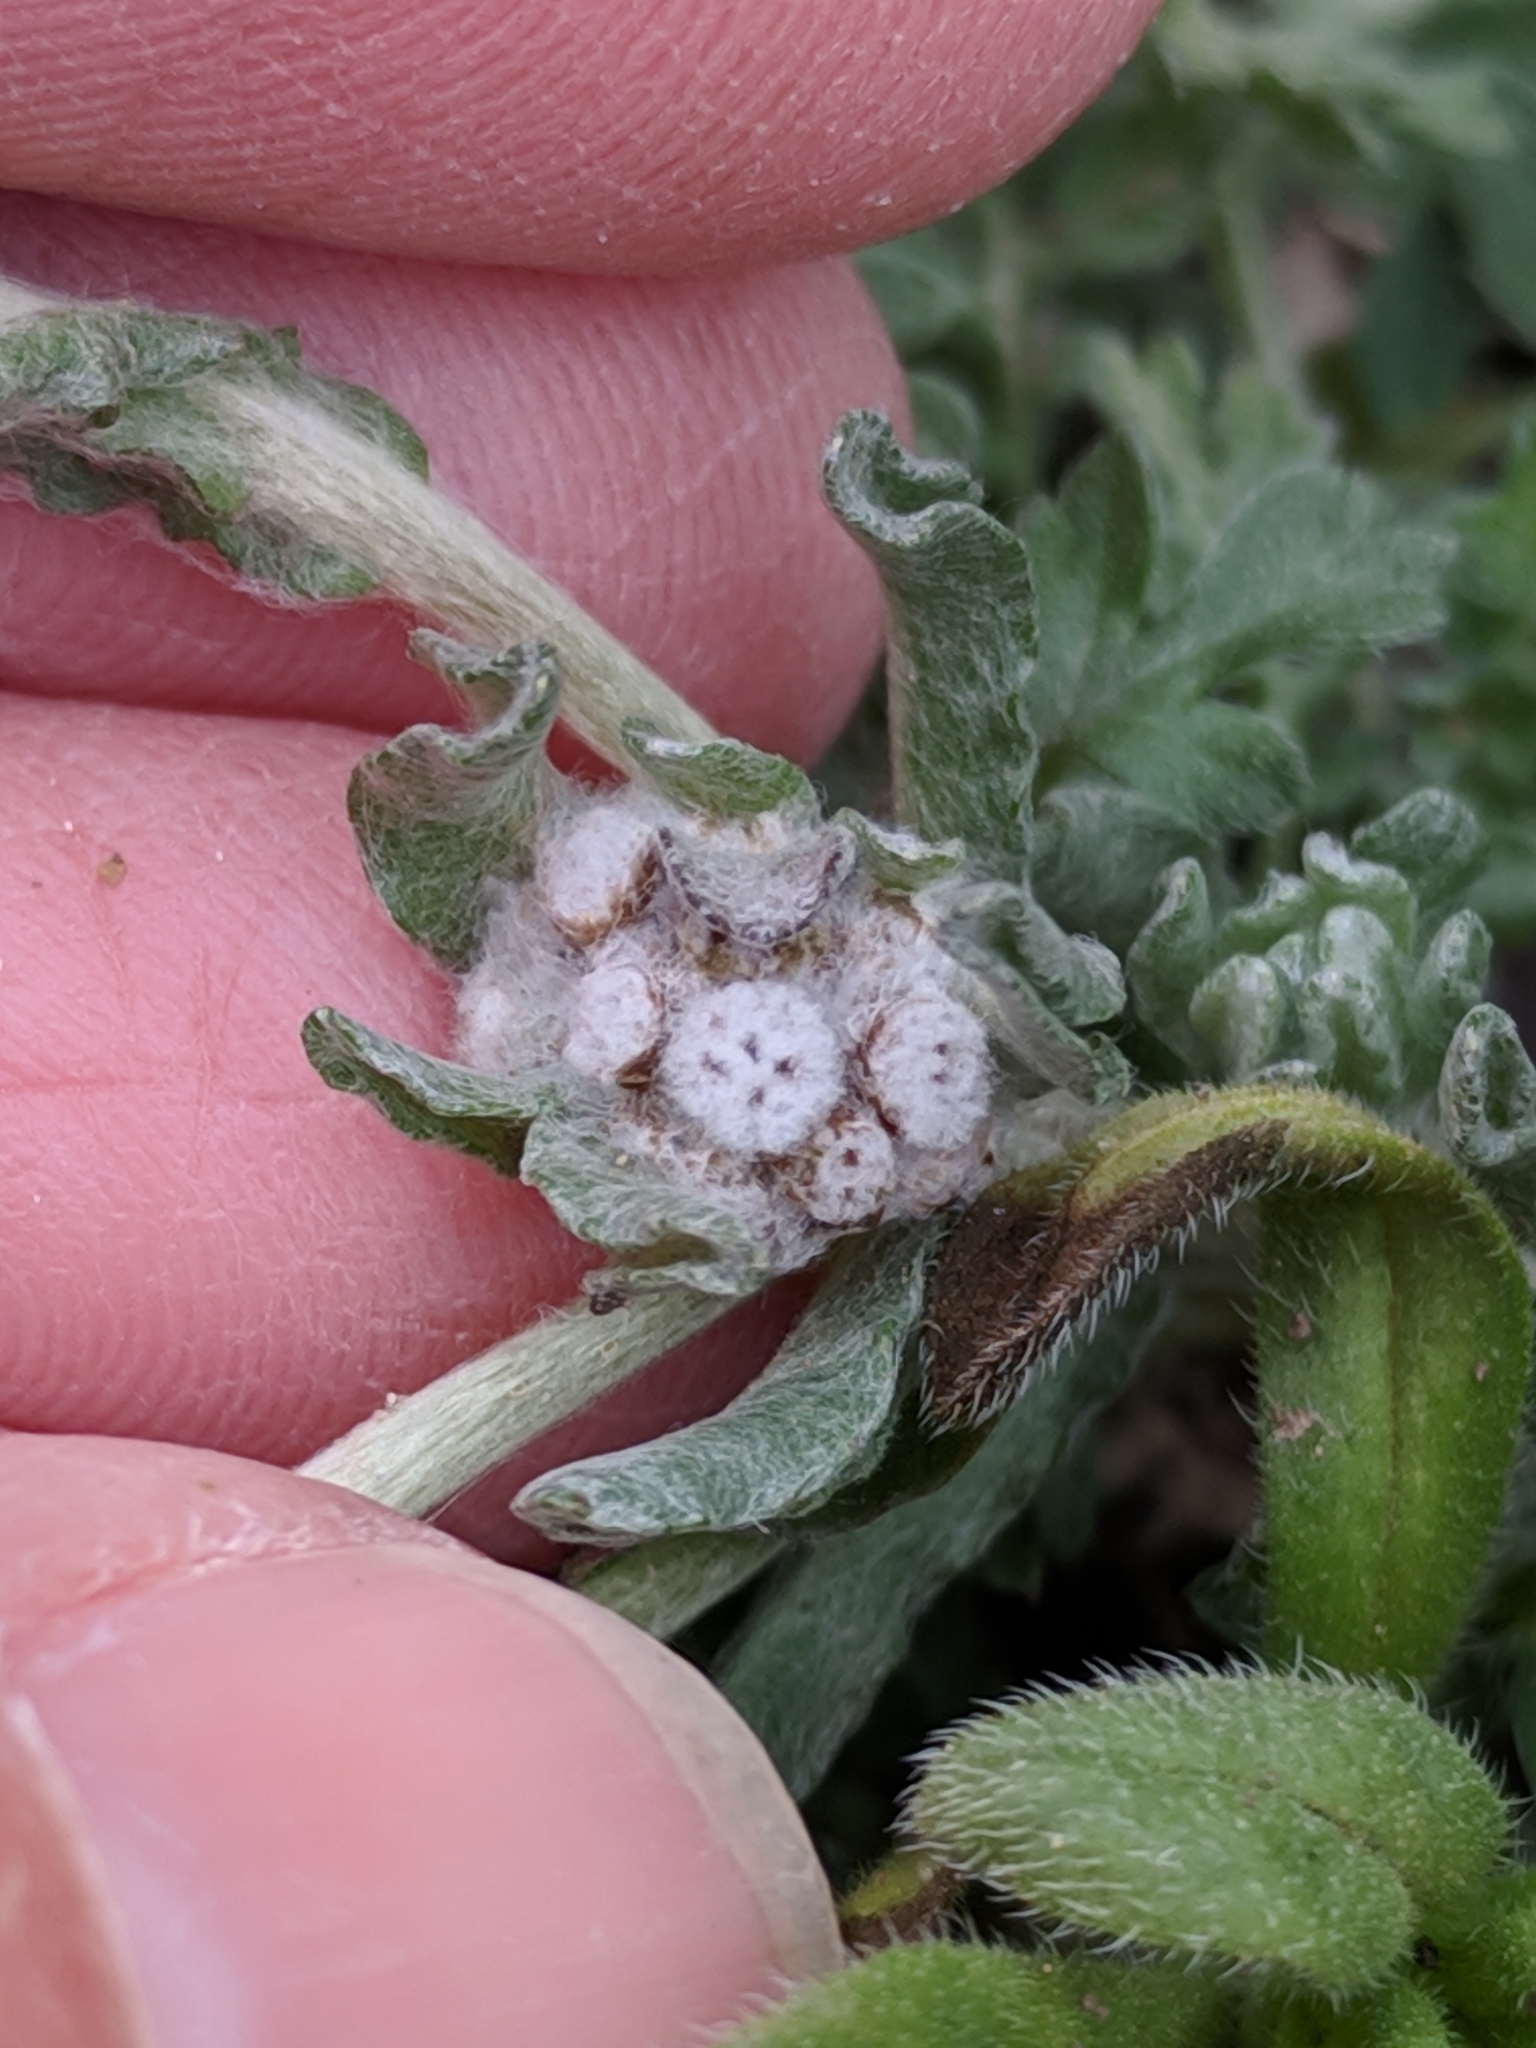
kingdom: Plantae
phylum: Tracheophyta
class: Magnoliopsida
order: Asterales
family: Asteraceae
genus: Diaperia
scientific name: Diaperia verna
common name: Many-stem rabbit-tobacco
